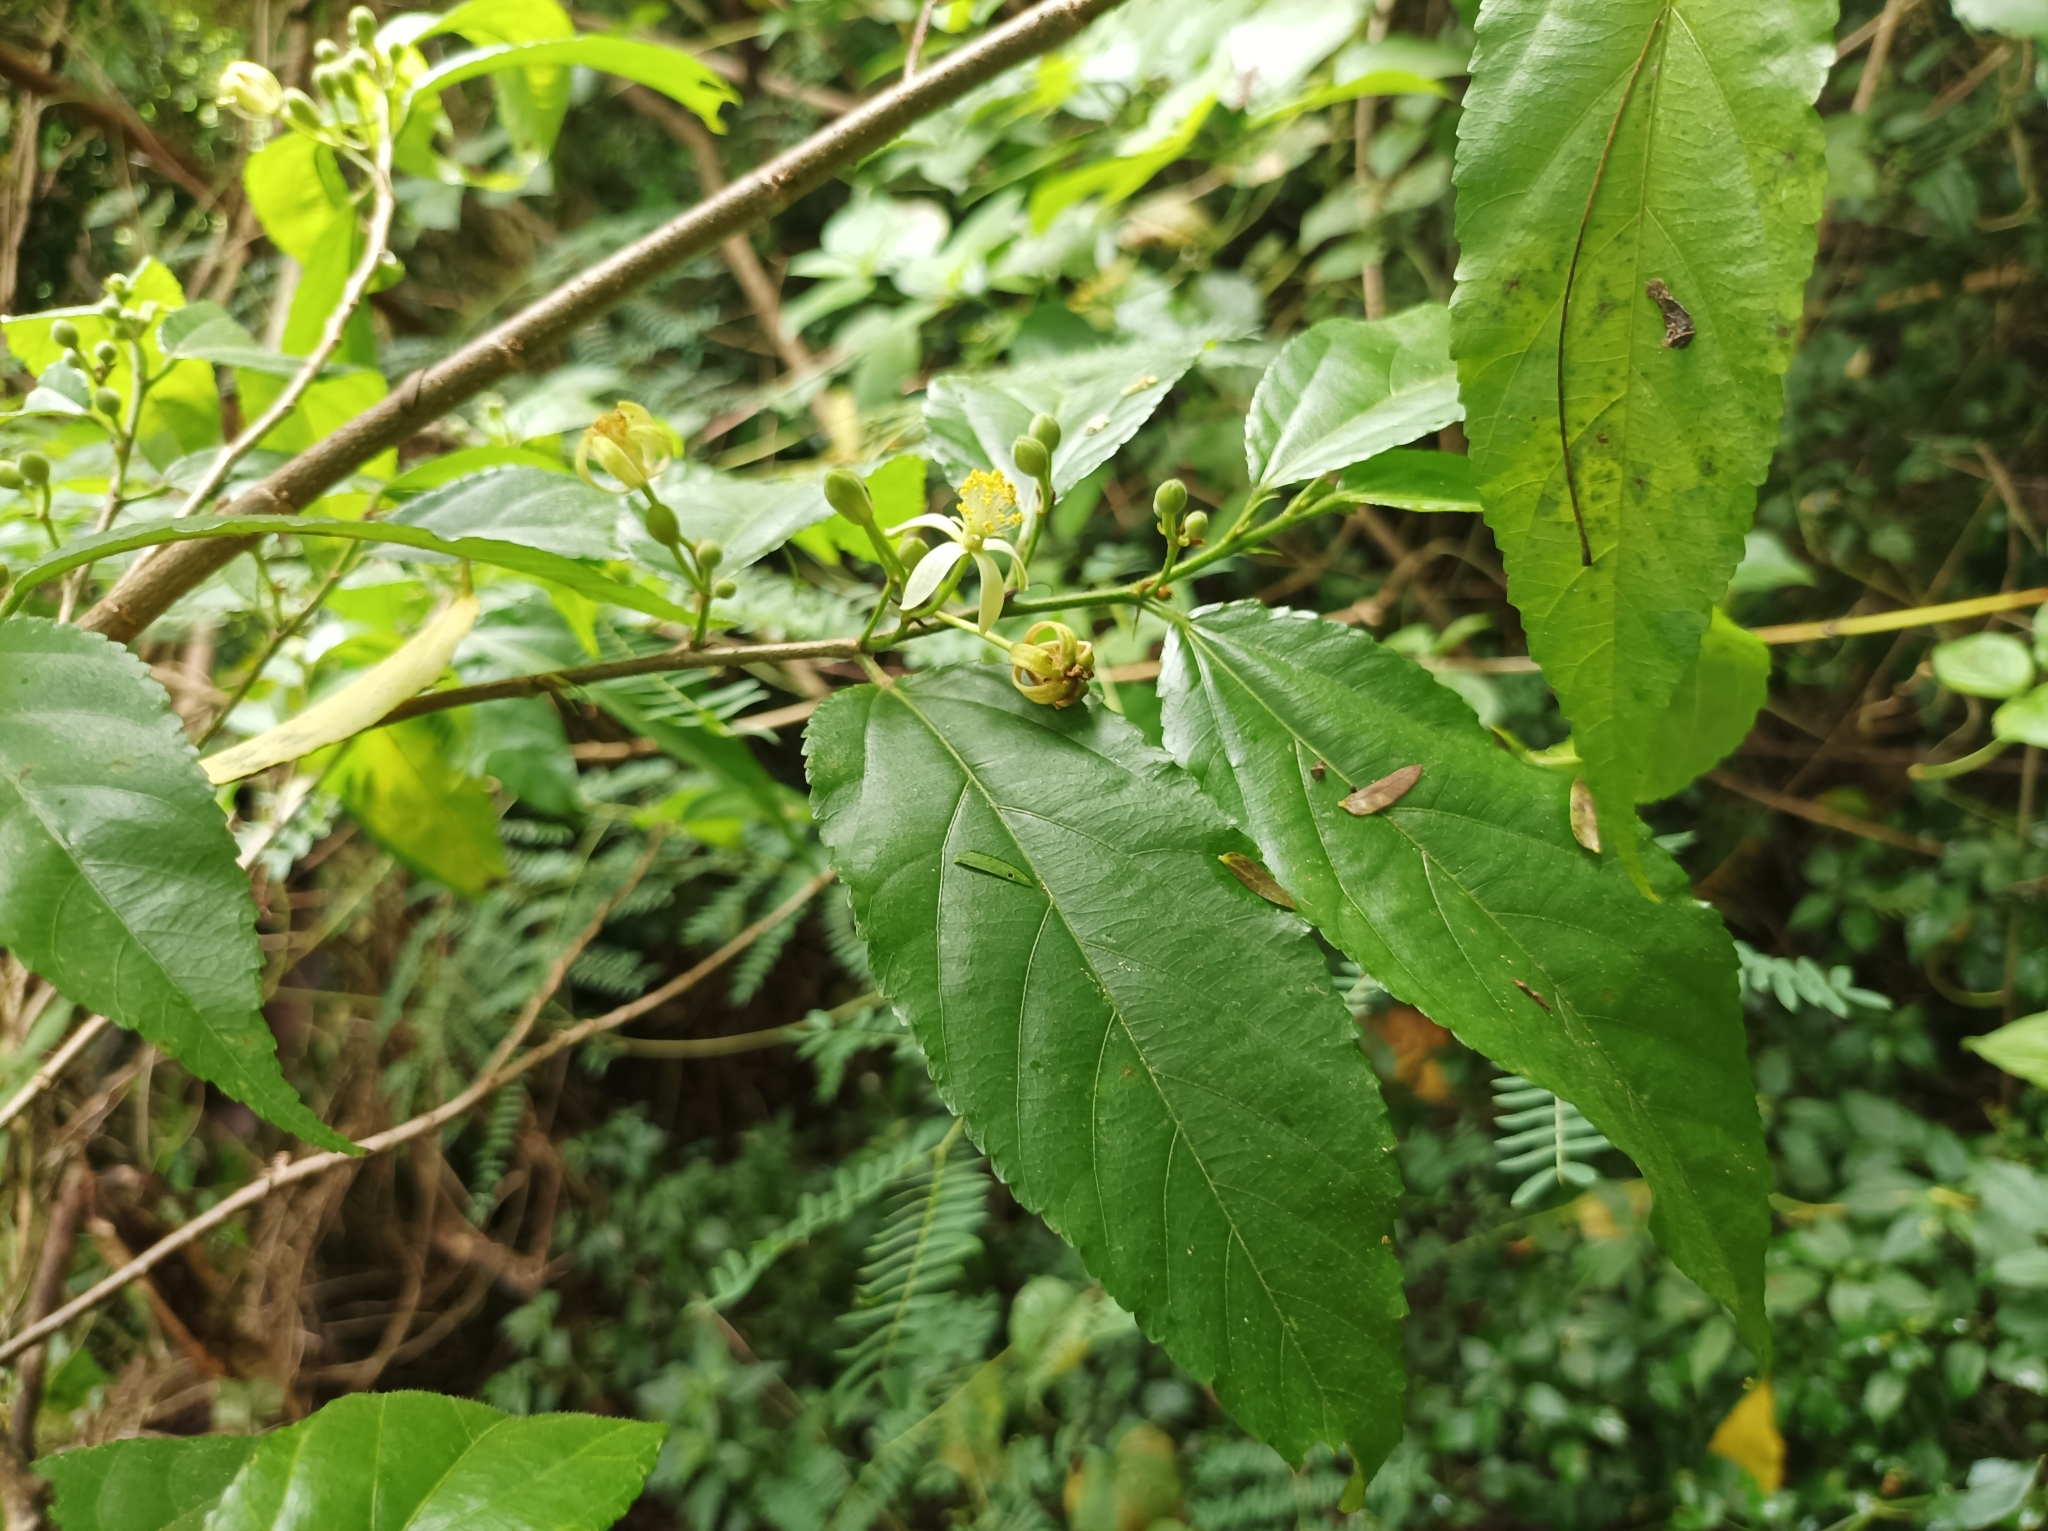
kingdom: Plantae
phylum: Tracheophyta
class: Magnoliopsida
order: Malvales
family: Malvaceae
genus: Grewia
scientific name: Grewia crenata
